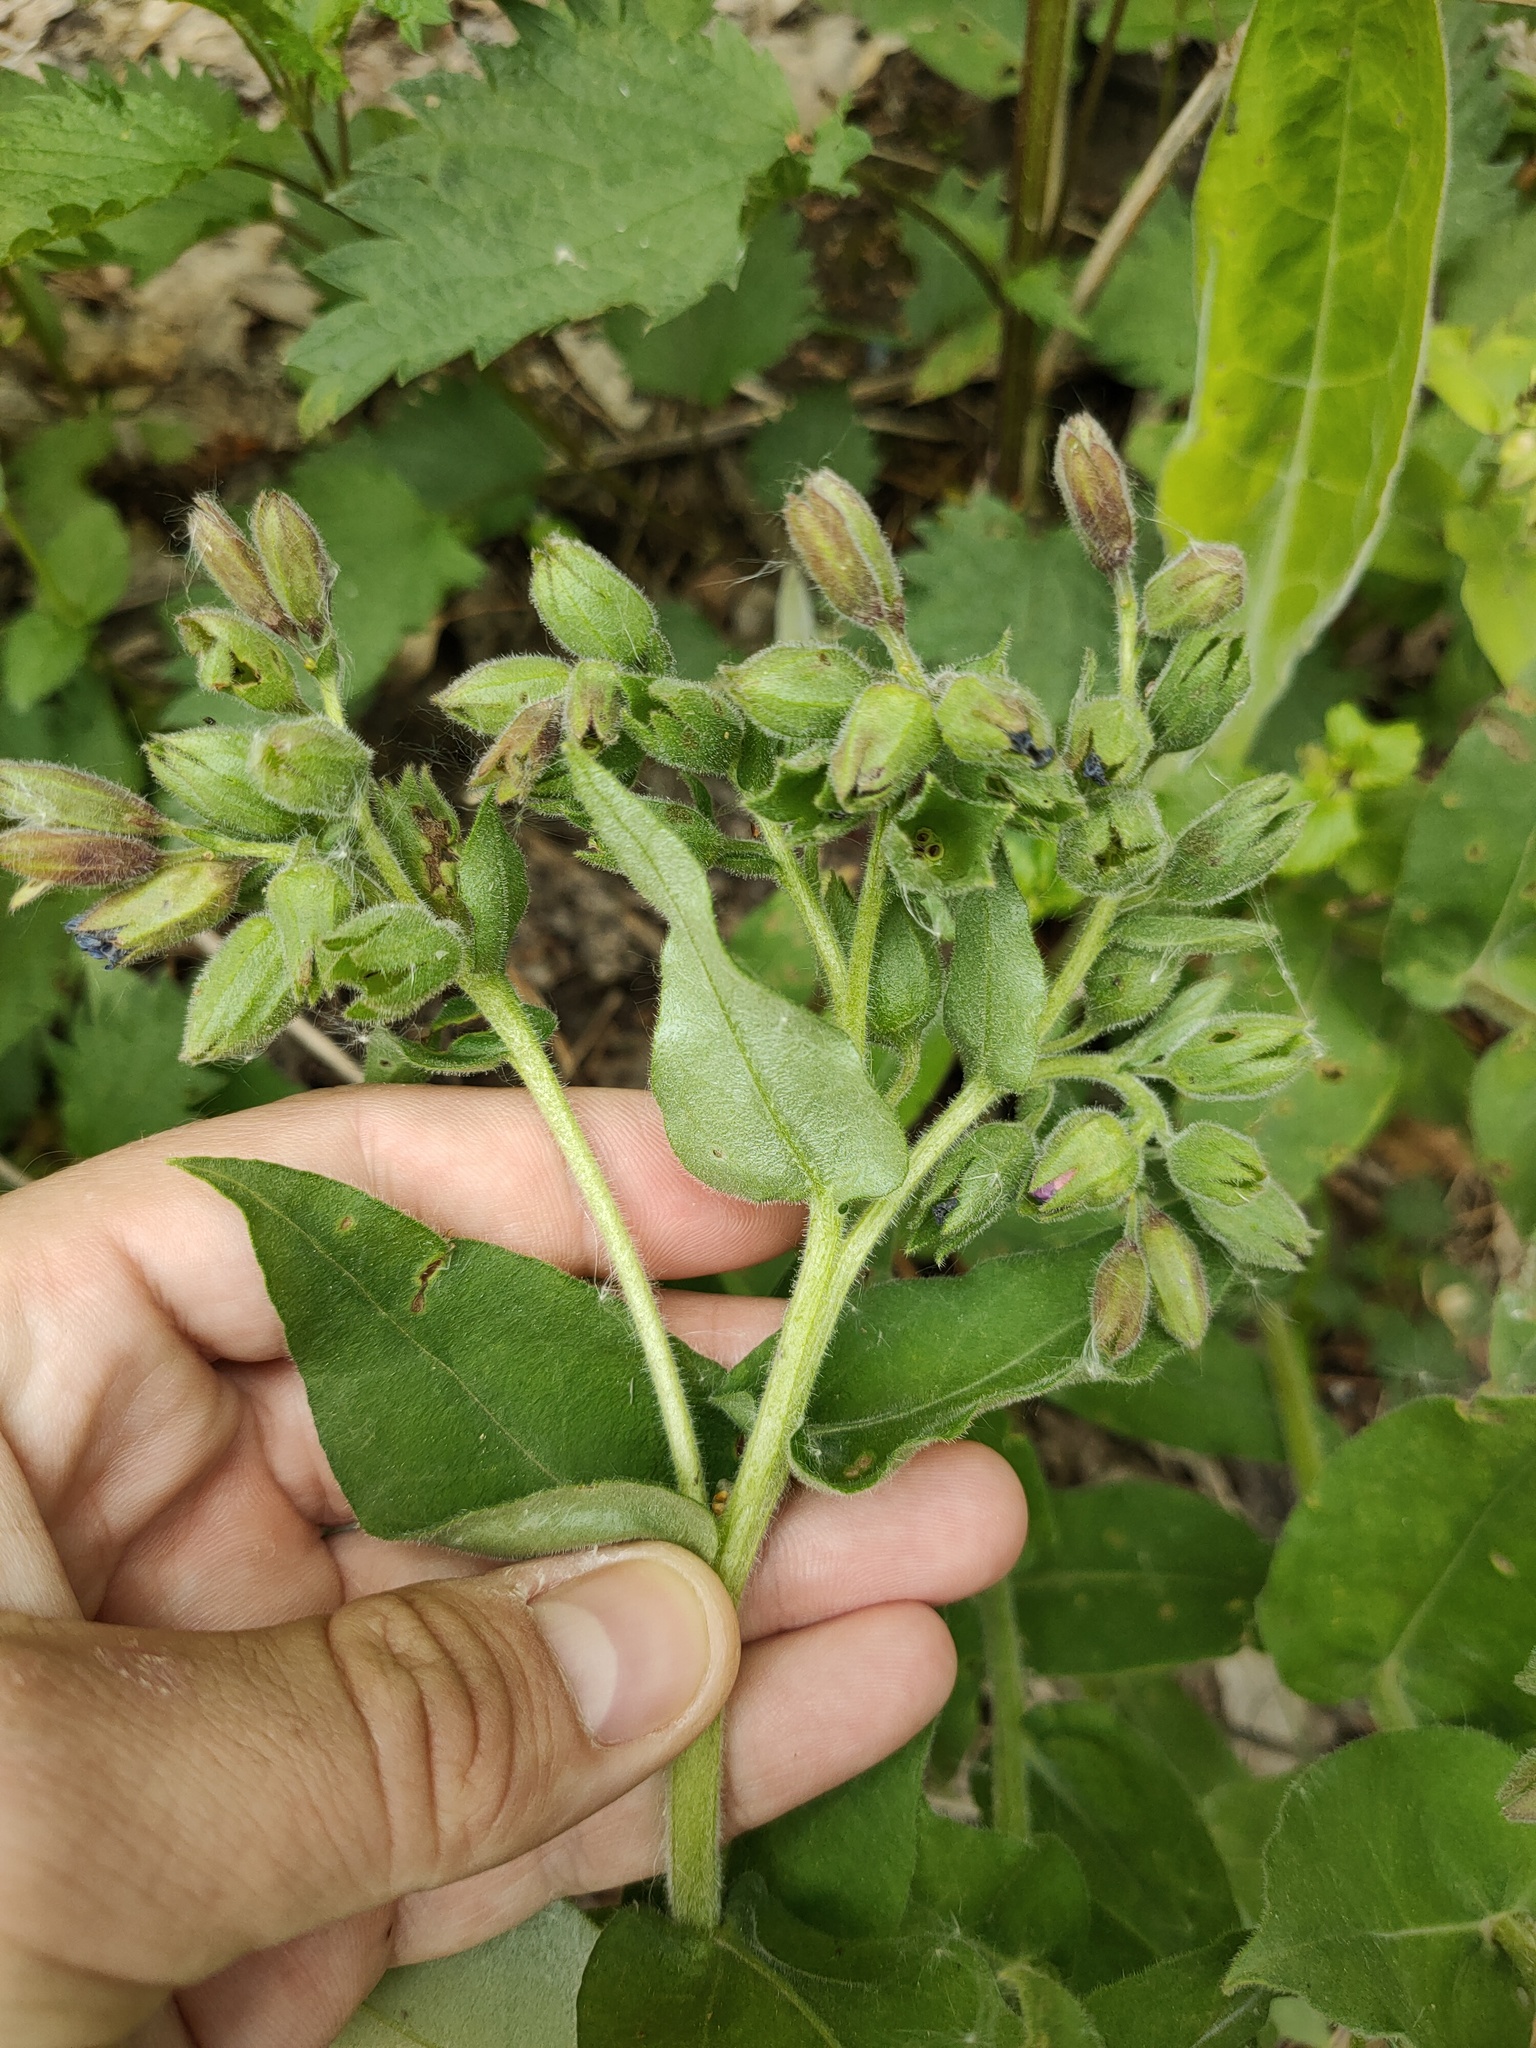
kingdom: Plantae
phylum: Tracheophyta
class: Magnoliopsida
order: Boraginales
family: Boraginaceae
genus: Pulmonaria
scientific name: Pulmonaria mollis
